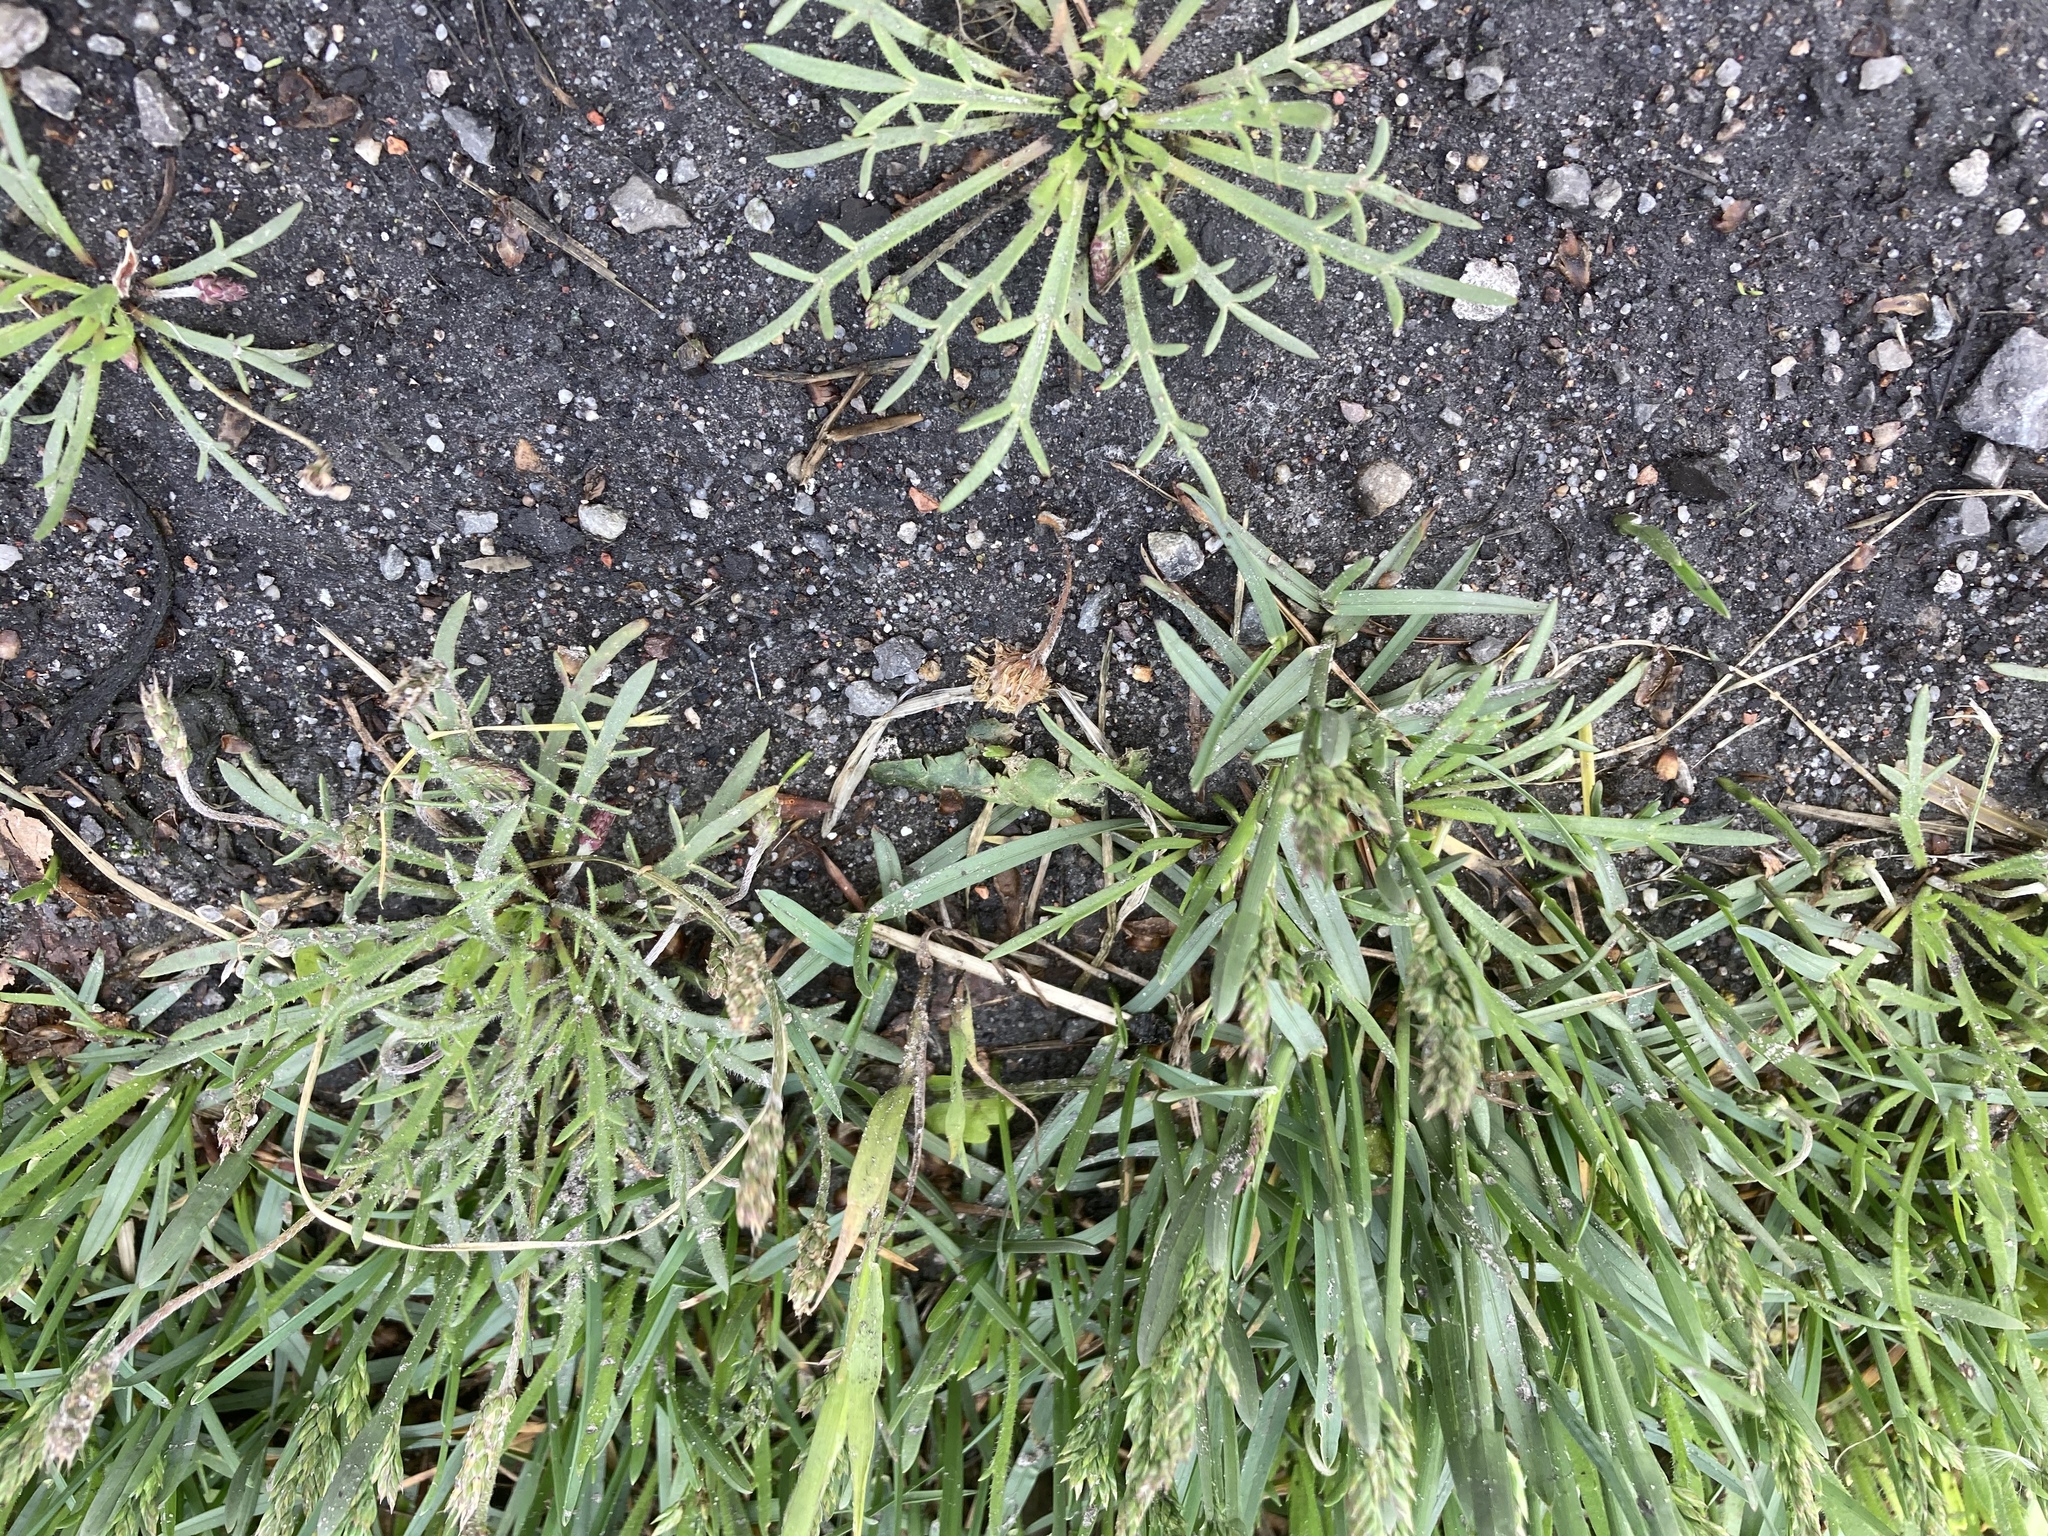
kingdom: Plantae
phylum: Tracheophyta
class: Magnoliopsida
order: Lamiales
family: Plantaginaceae
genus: Plantago
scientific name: Plantago coronopus
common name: Buck's-horn plantain
